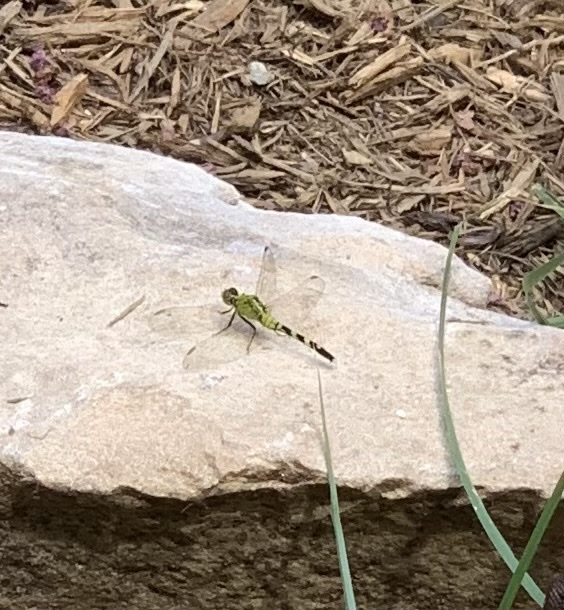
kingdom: Animalia
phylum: Arthropoda
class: Insecta
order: Odonata
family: Libellulidae
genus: Erythemis
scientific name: Erythemis simplicicollis
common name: Eastern pondhawk
